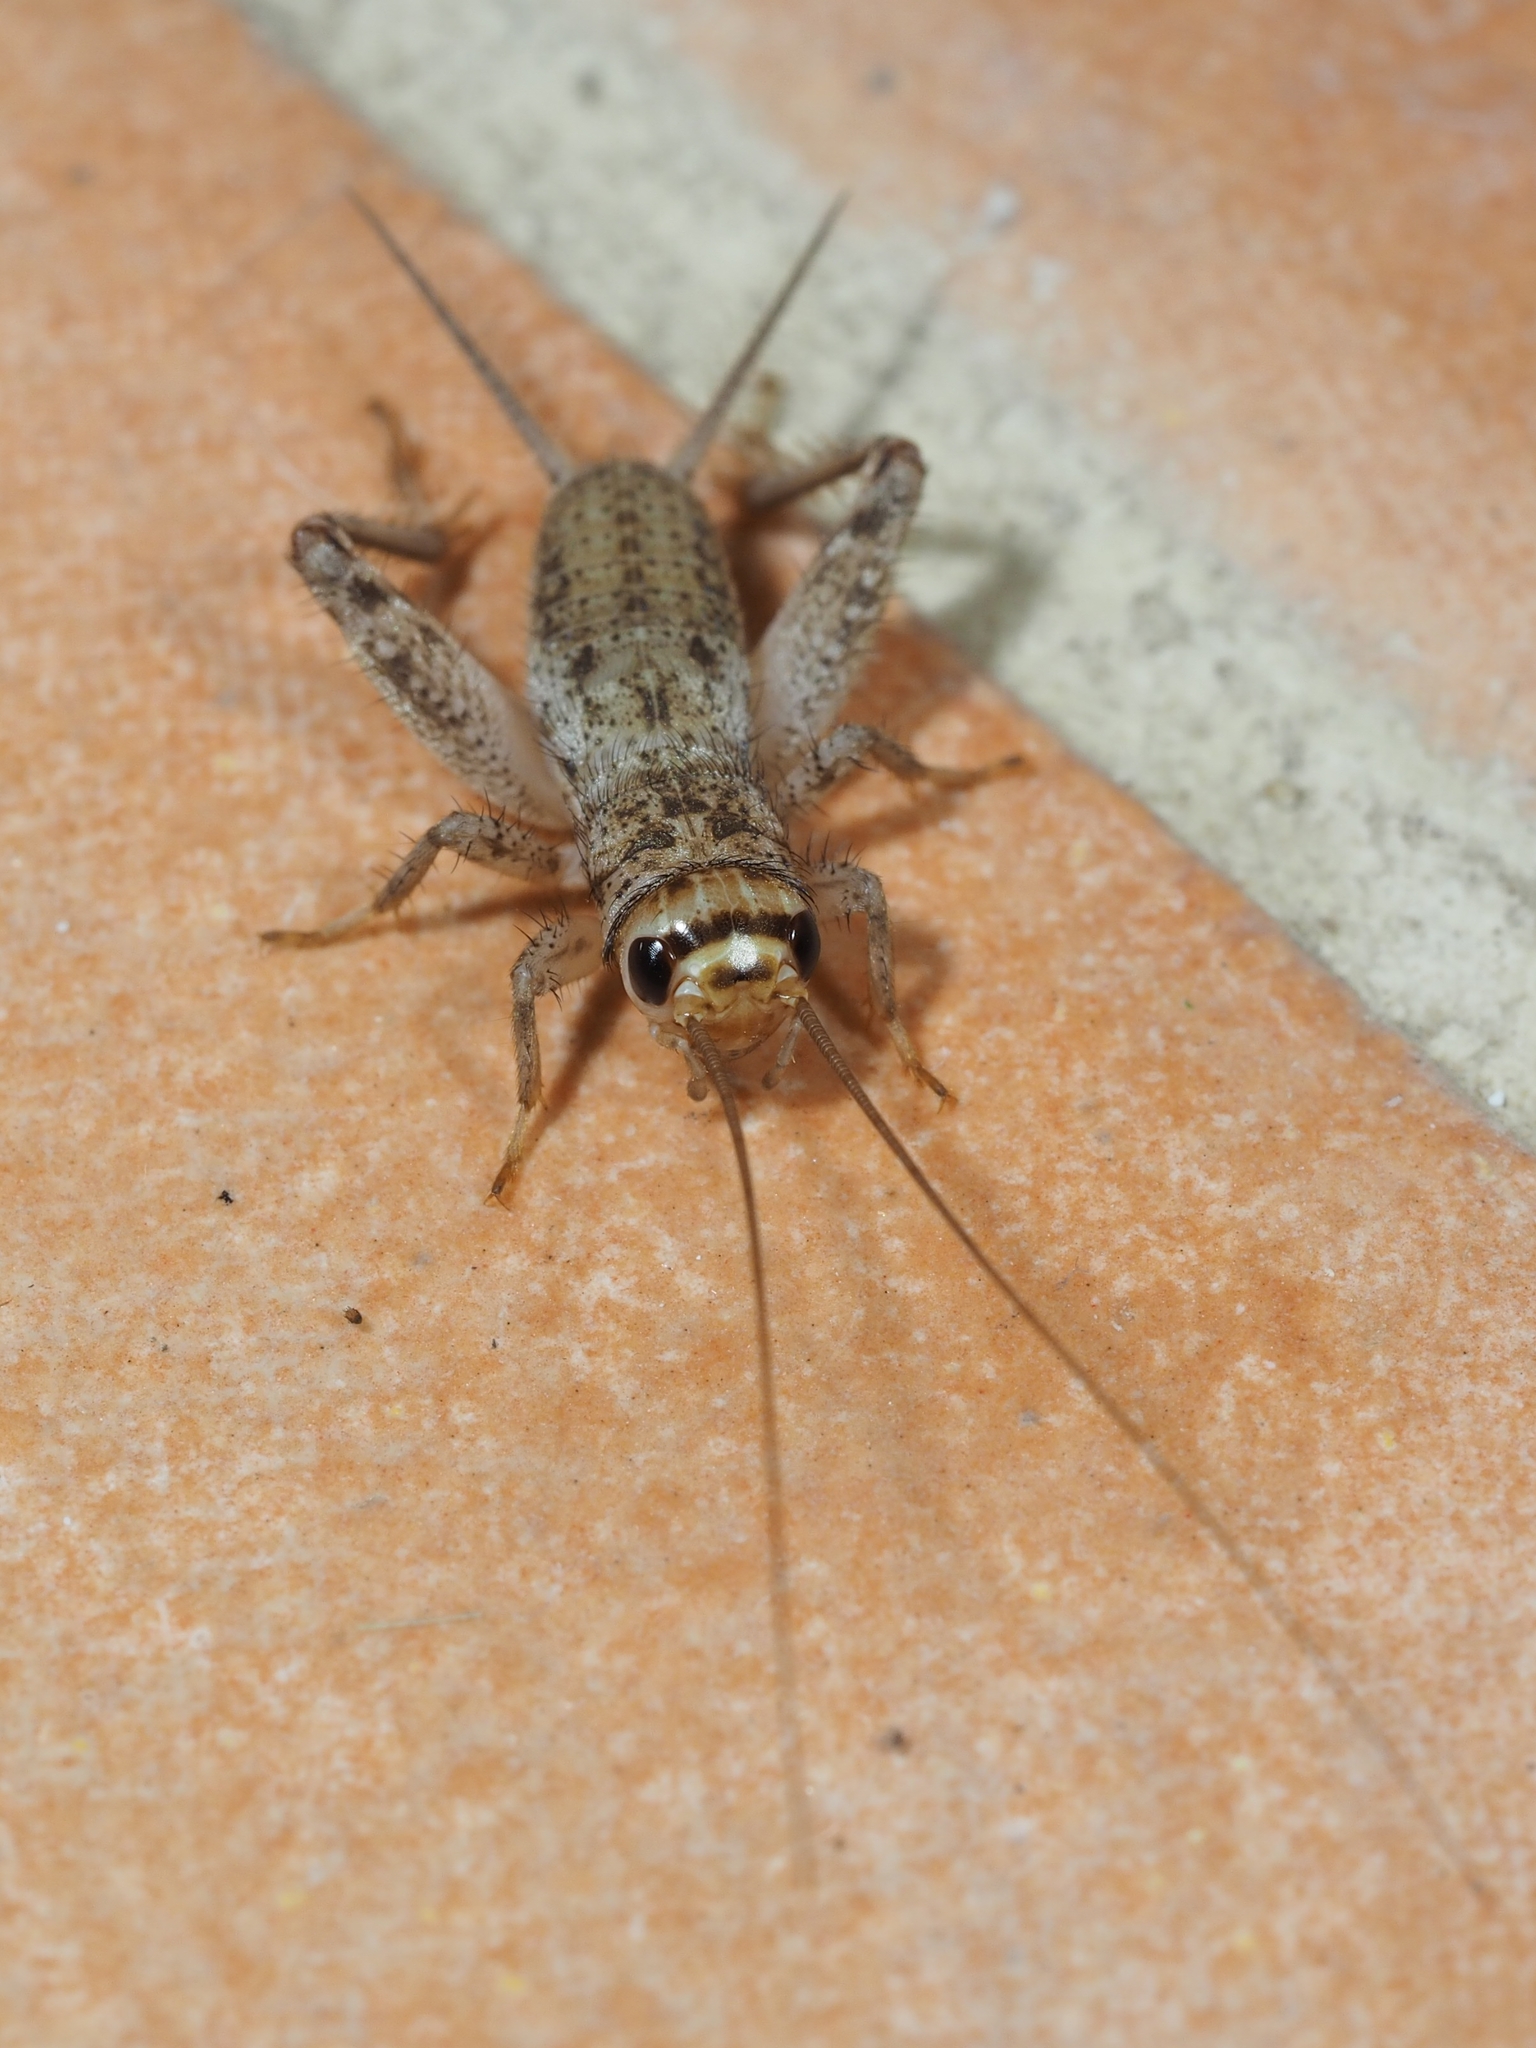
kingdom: Animalia
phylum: Arthropoda
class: Insecta
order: Orthoptera
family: Gryllidae
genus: Acheta
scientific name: Acheta domesticus
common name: House cricket
